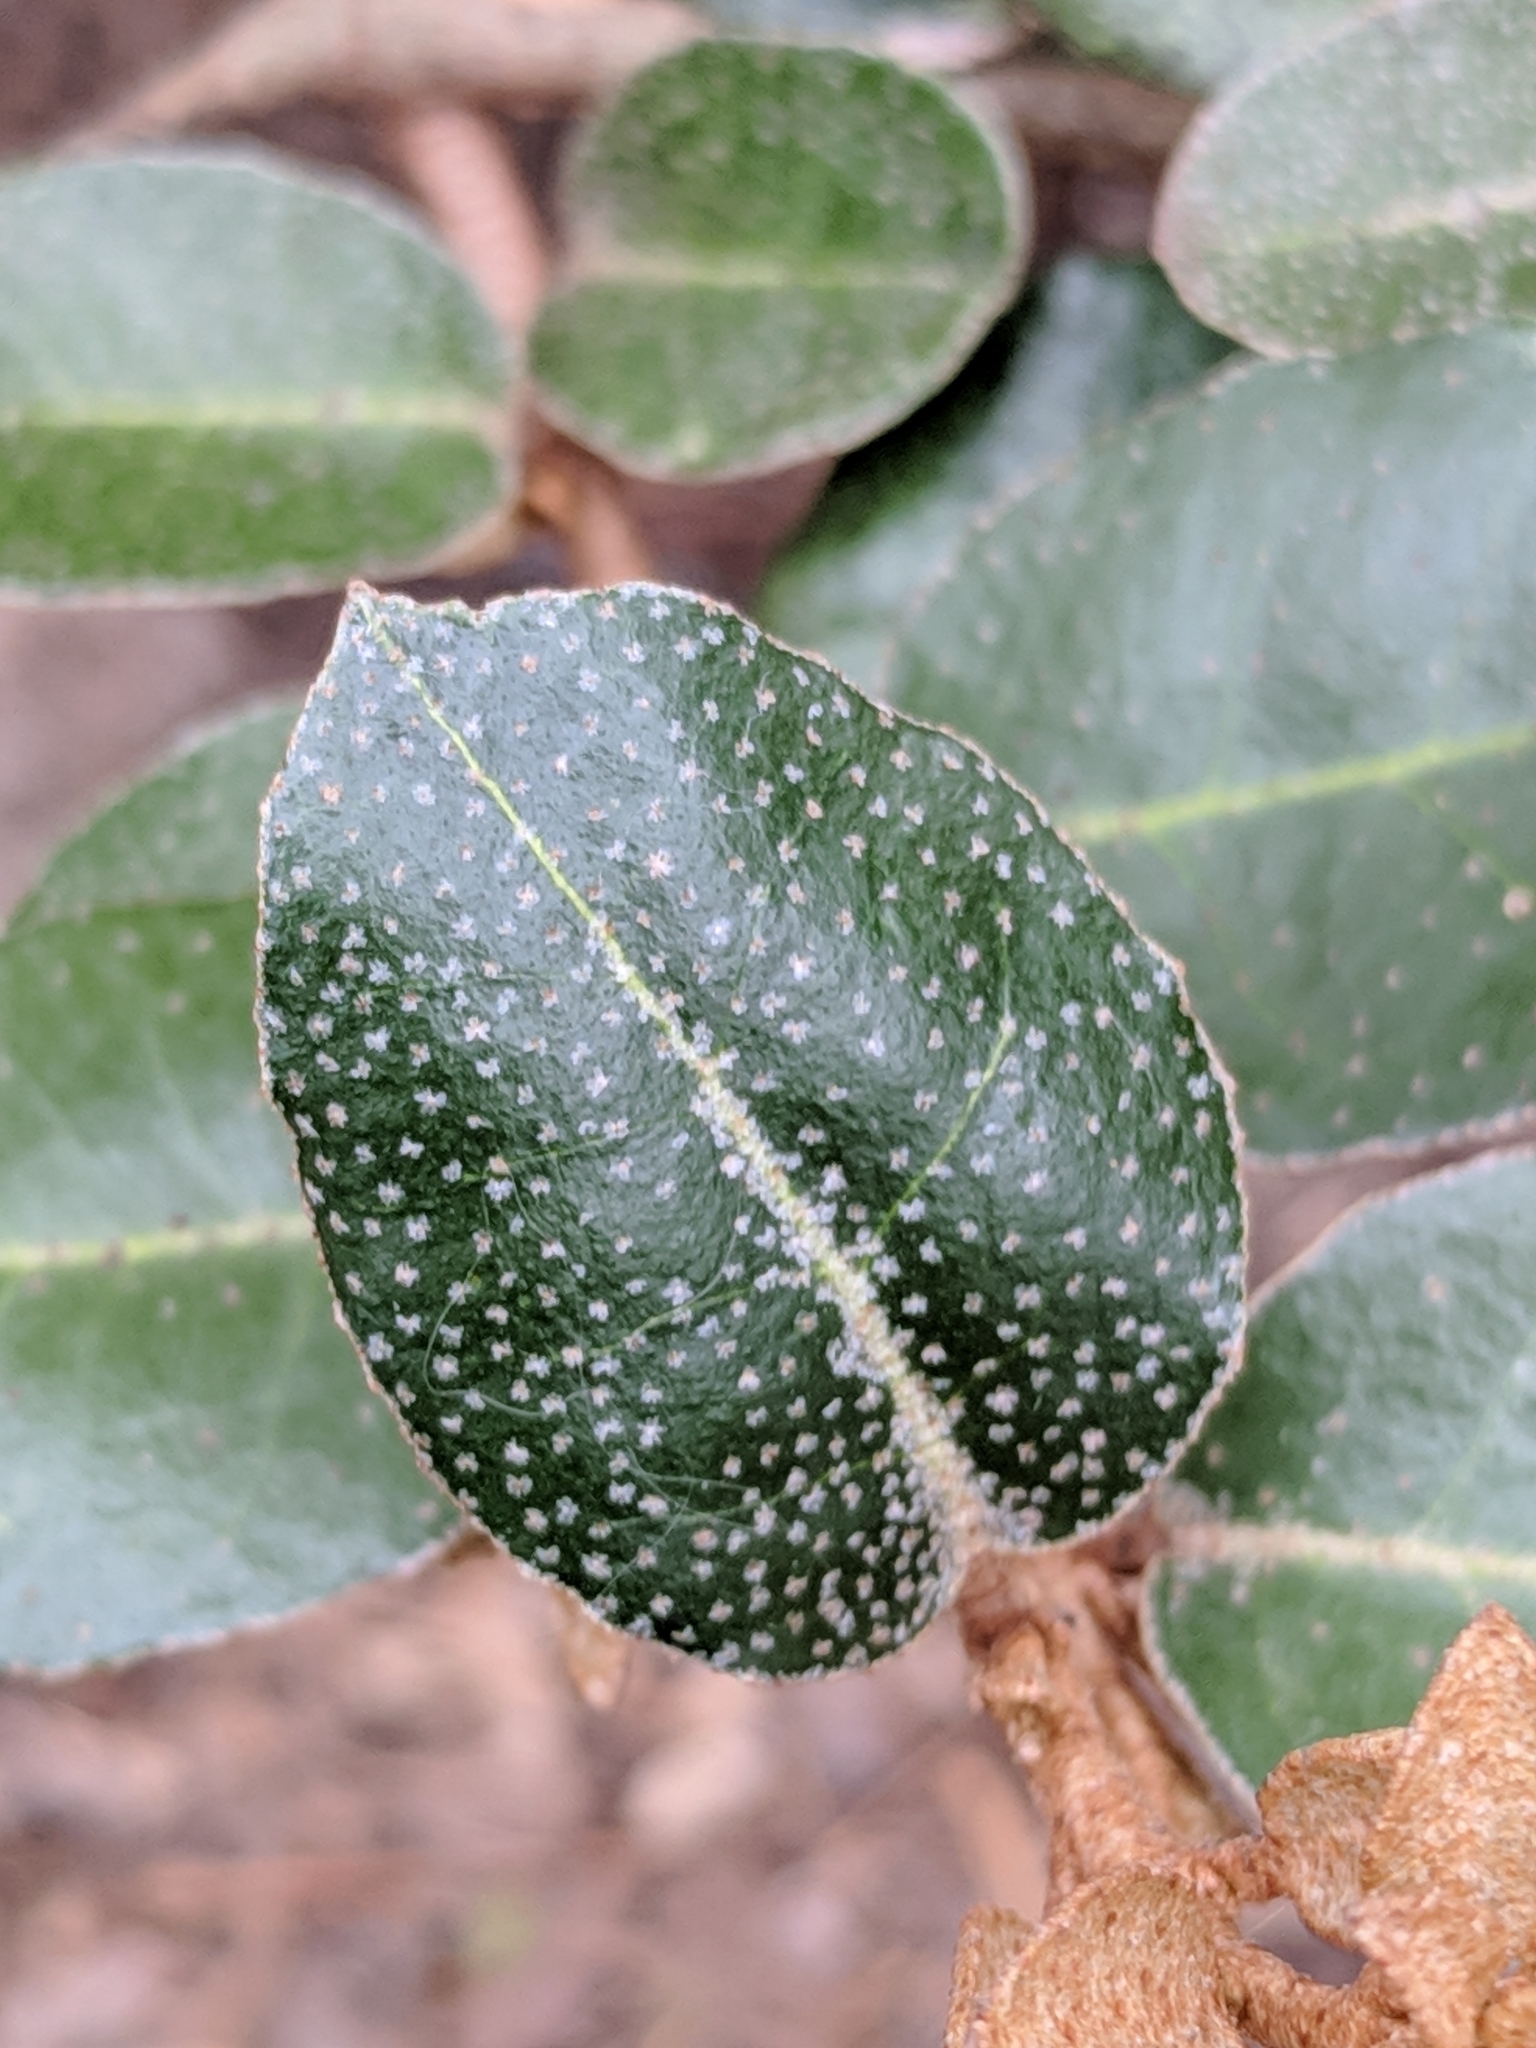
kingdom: Plantae
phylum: Tracheophyta
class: Magnoliopsida
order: Rosales
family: Elaeagnaceae
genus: Elaeagnus
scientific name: Elaeagnus pungens
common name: Spiny oleaster
